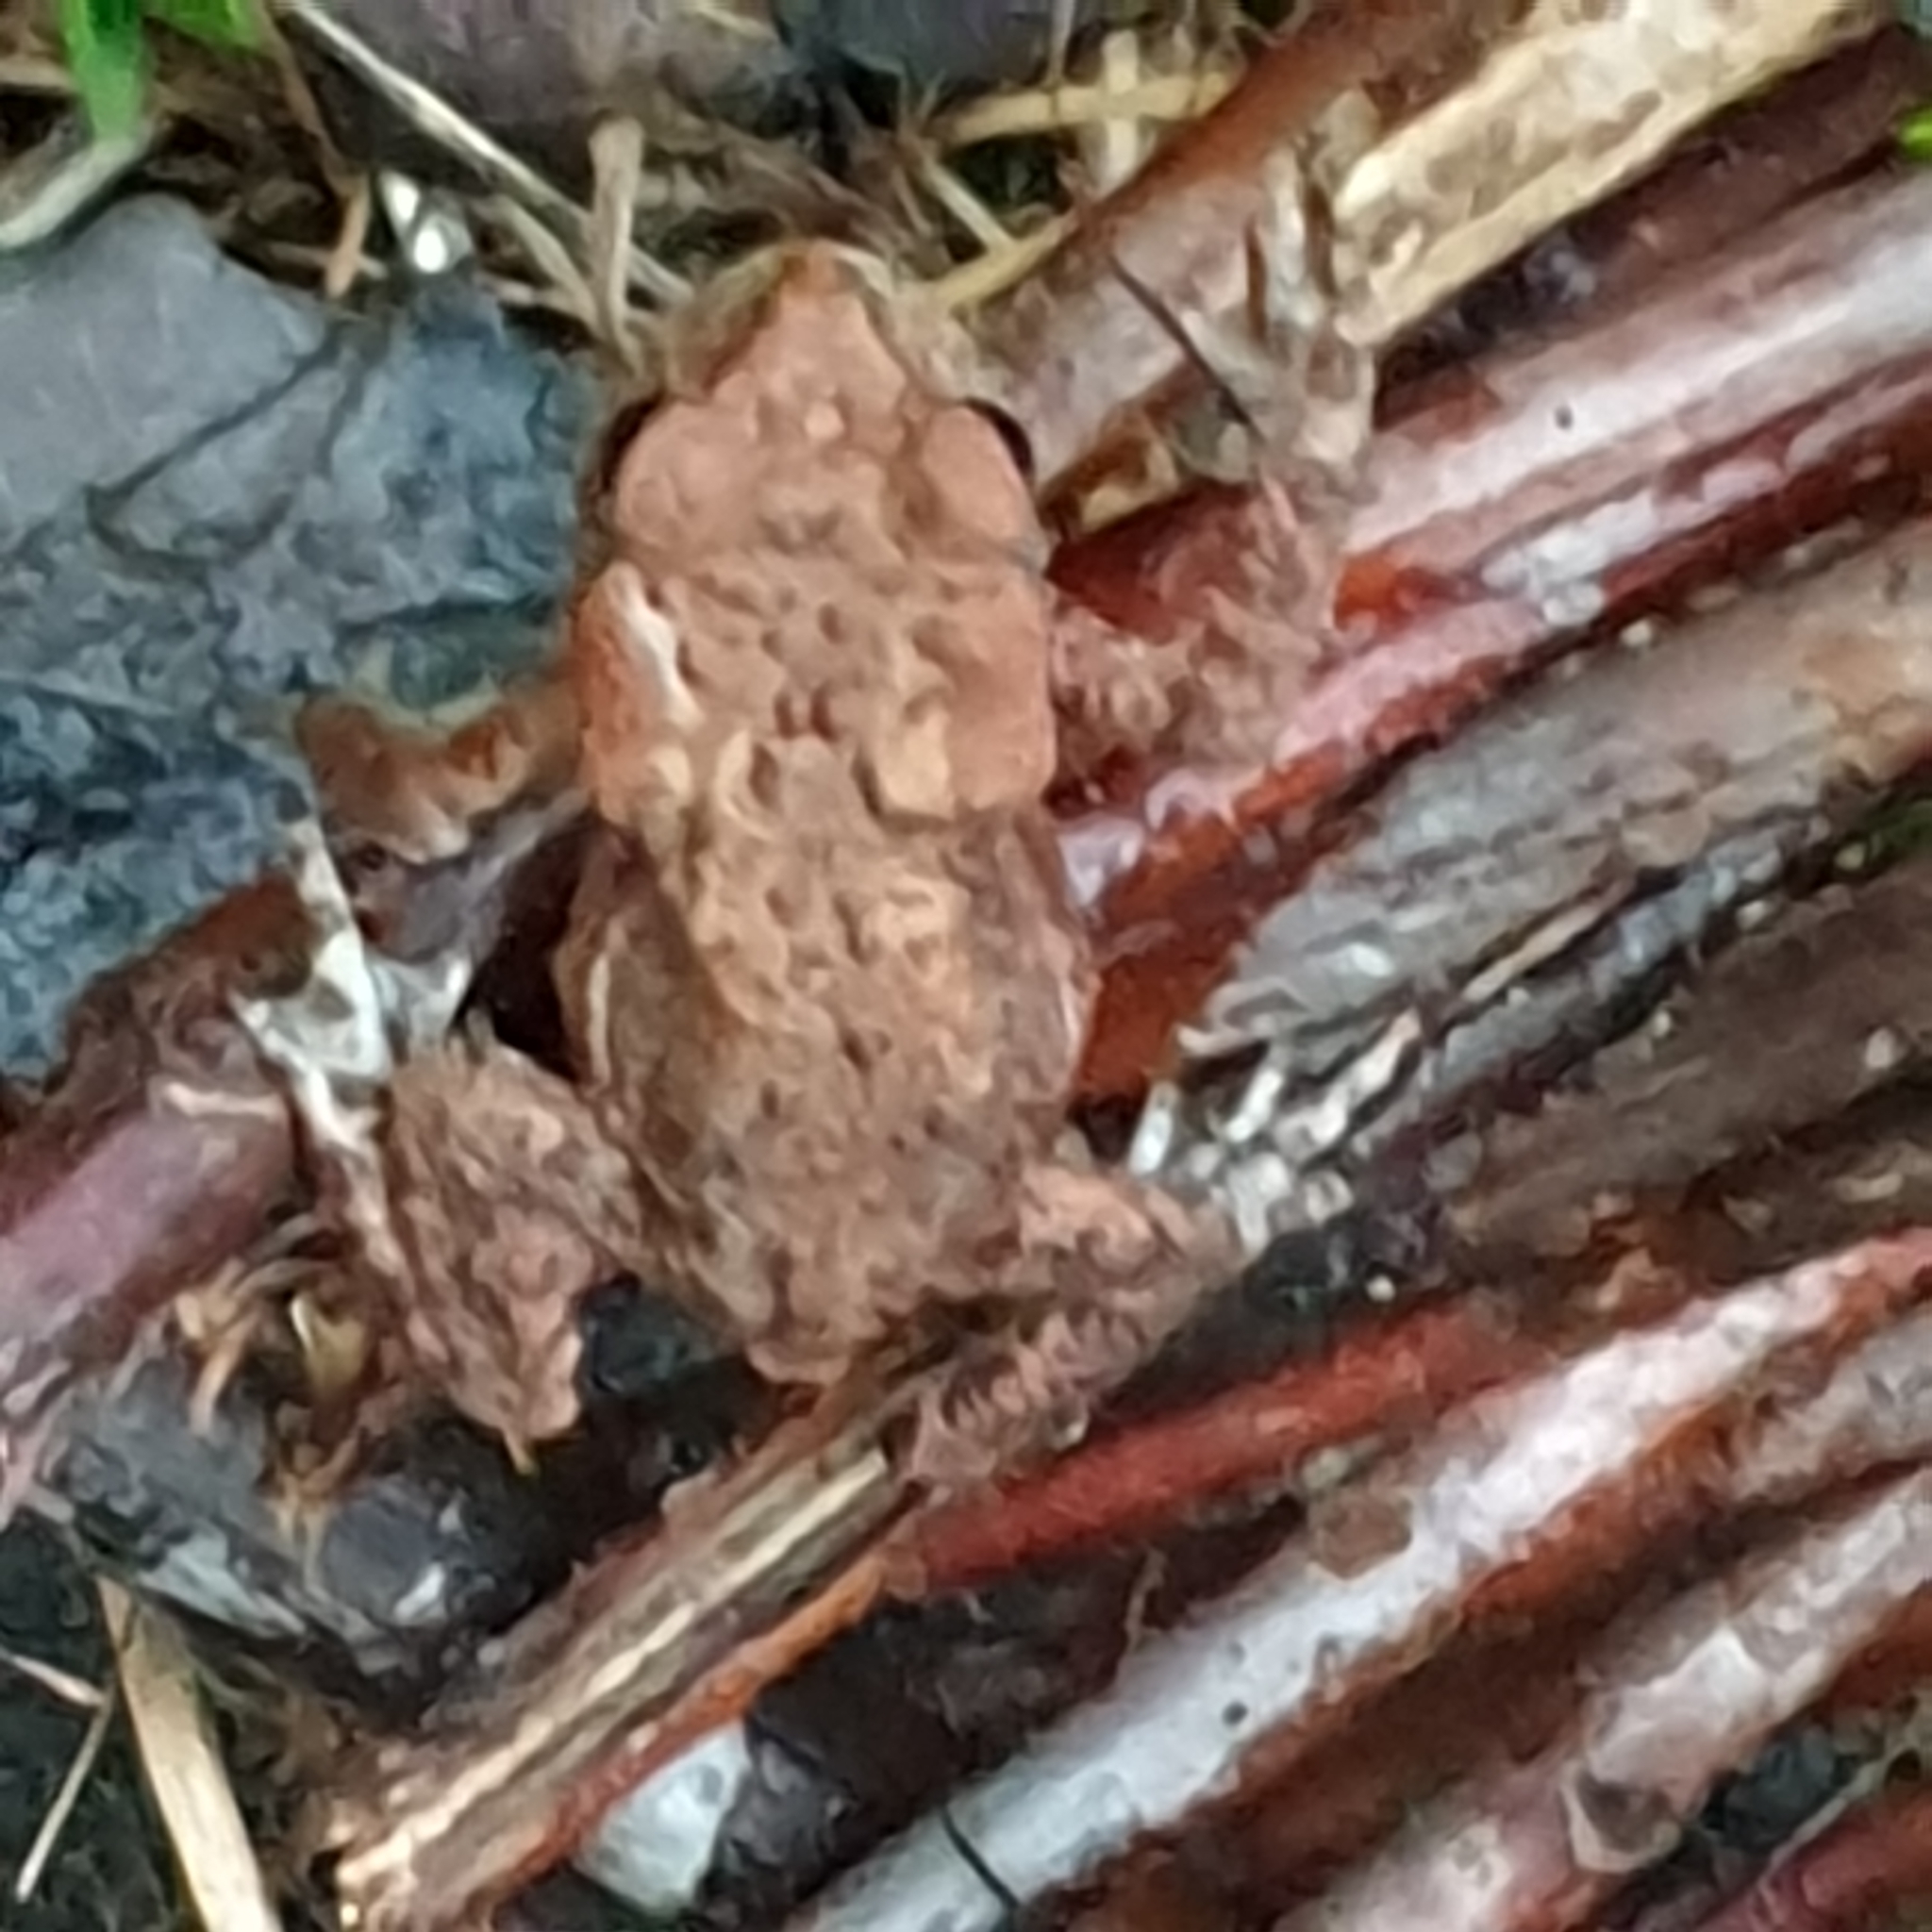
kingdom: Animalia
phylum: Chordata
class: Amphibia
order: Anura
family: Bufonidae
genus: Bufo
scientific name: Bufo bufo
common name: Common toad
